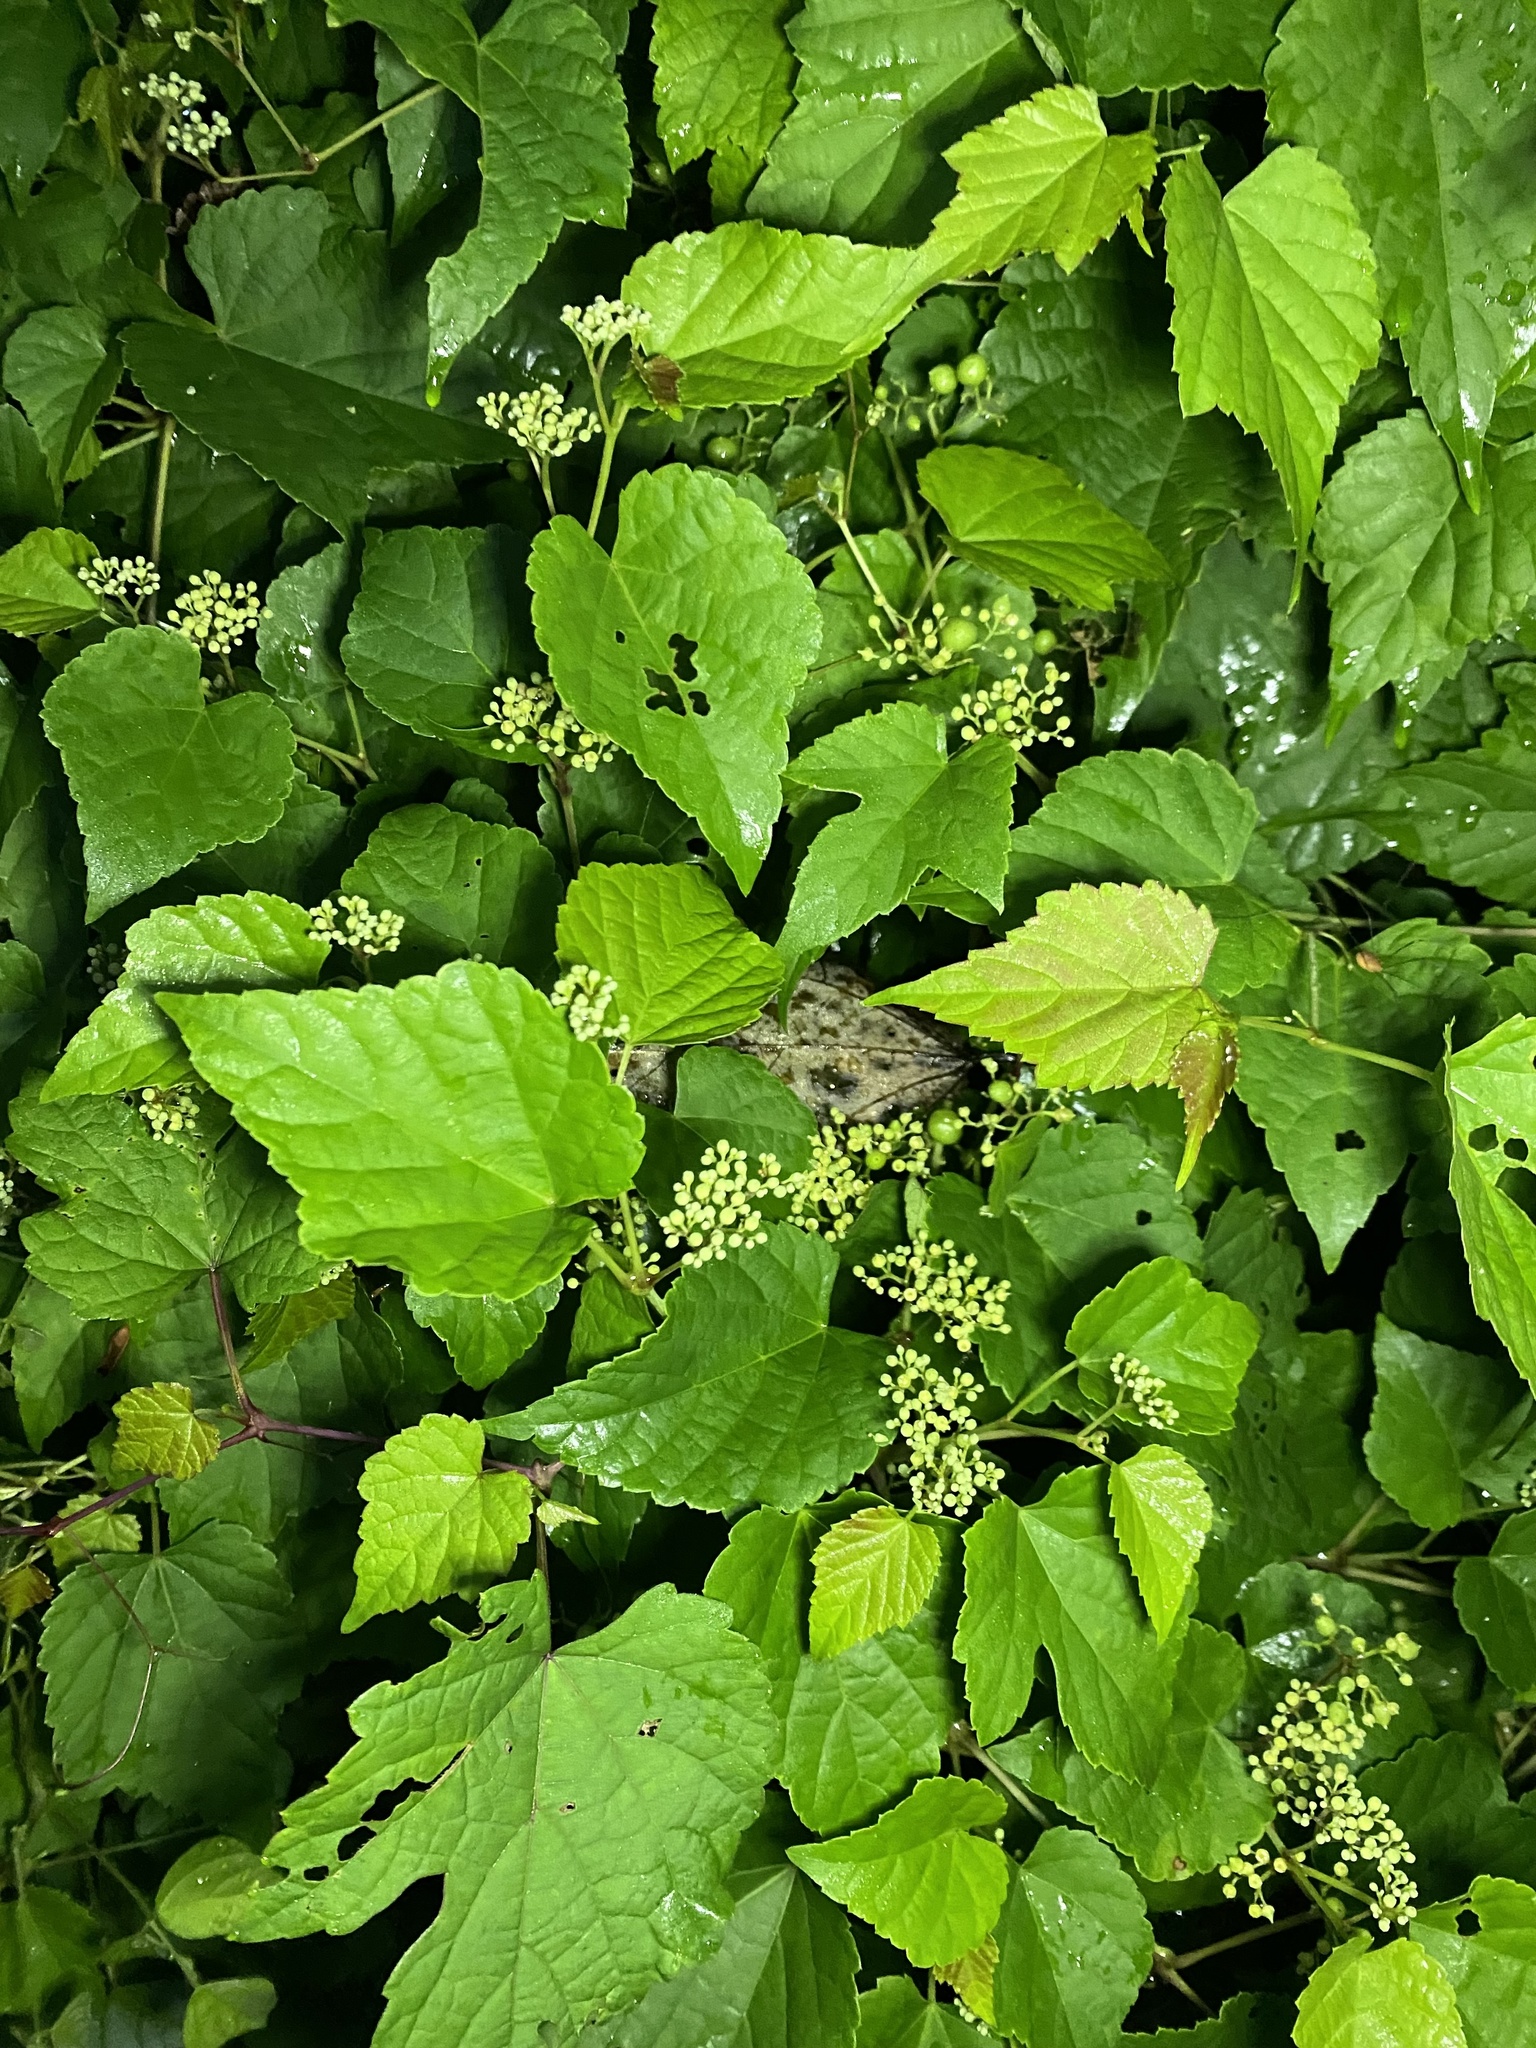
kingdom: Plantae
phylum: Tracheophyta
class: Magnoliopsida
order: Vitales
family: Vitaceae
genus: Ampelopsis
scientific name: Ampelopsis glandulosa
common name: Amur peppervine
